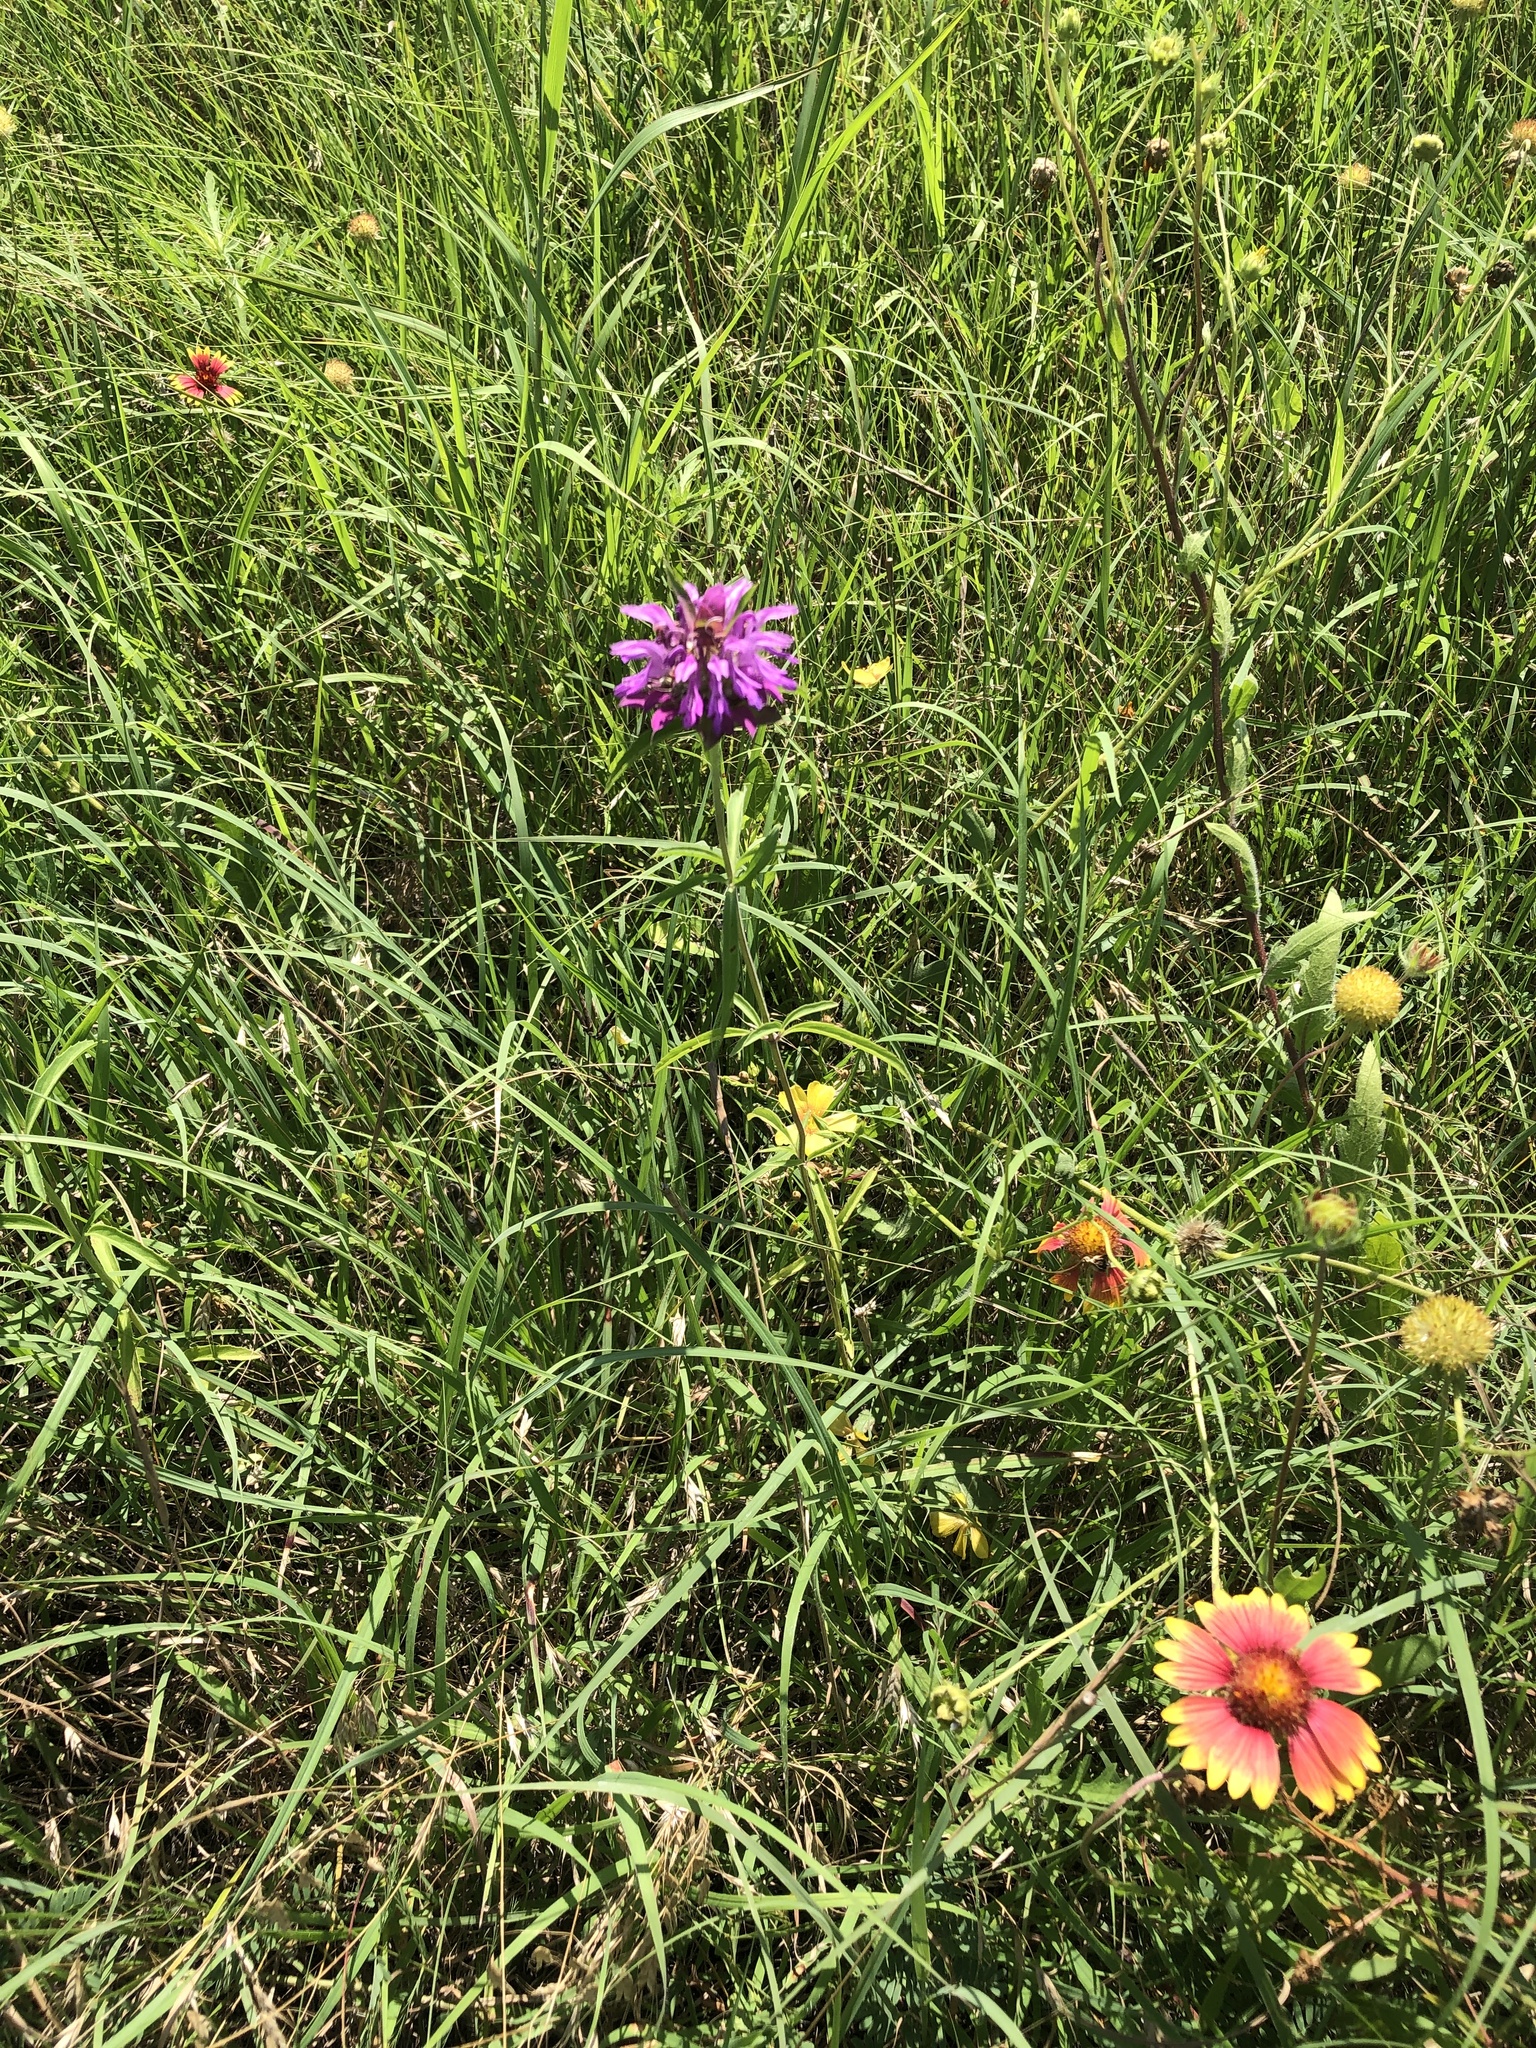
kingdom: Plantae
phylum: Tracheophyta
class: Magnoliopsida
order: Lamiales
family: Lamiaceae
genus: Monarda
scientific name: Monarda citriodora
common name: Lemon beebalm
